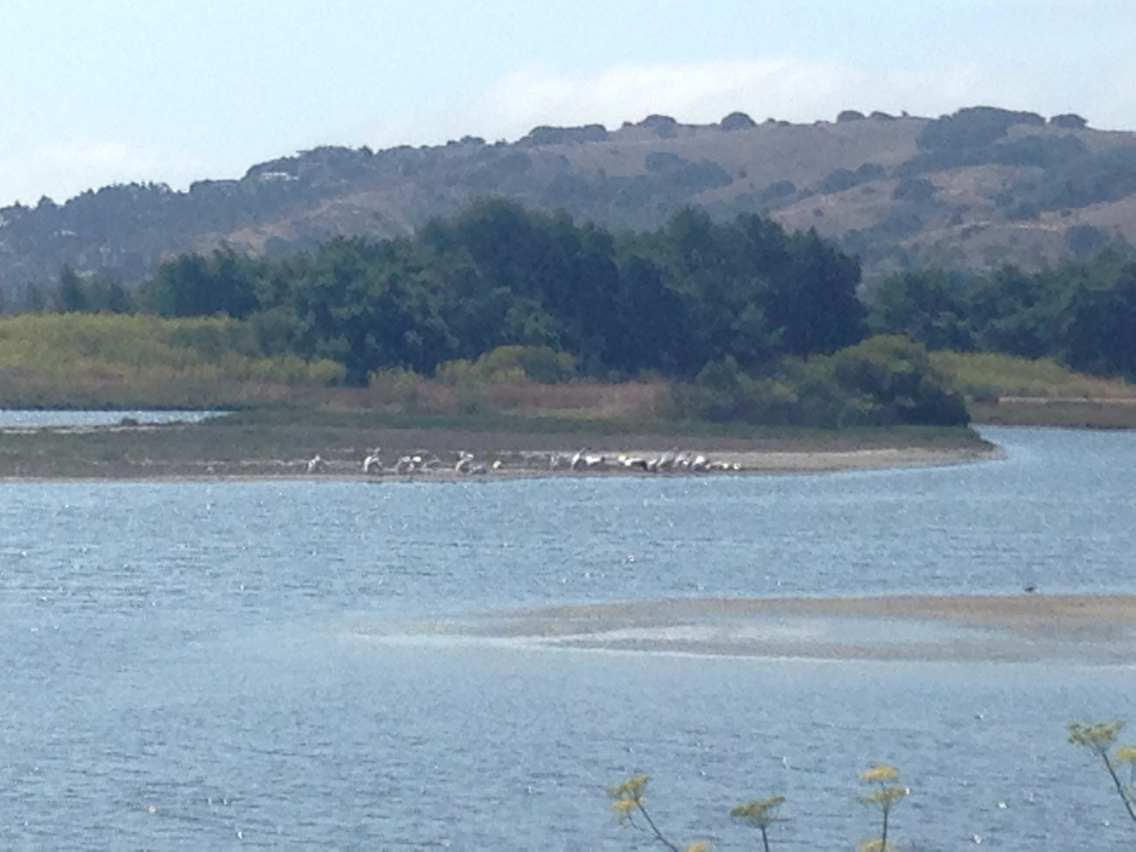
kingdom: Animalia
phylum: Chordata
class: Aves
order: Pelecaniformes
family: Pelecanidae
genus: Pelecanus
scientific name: Pelecanus erythrorhynchos
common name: American white pelican
